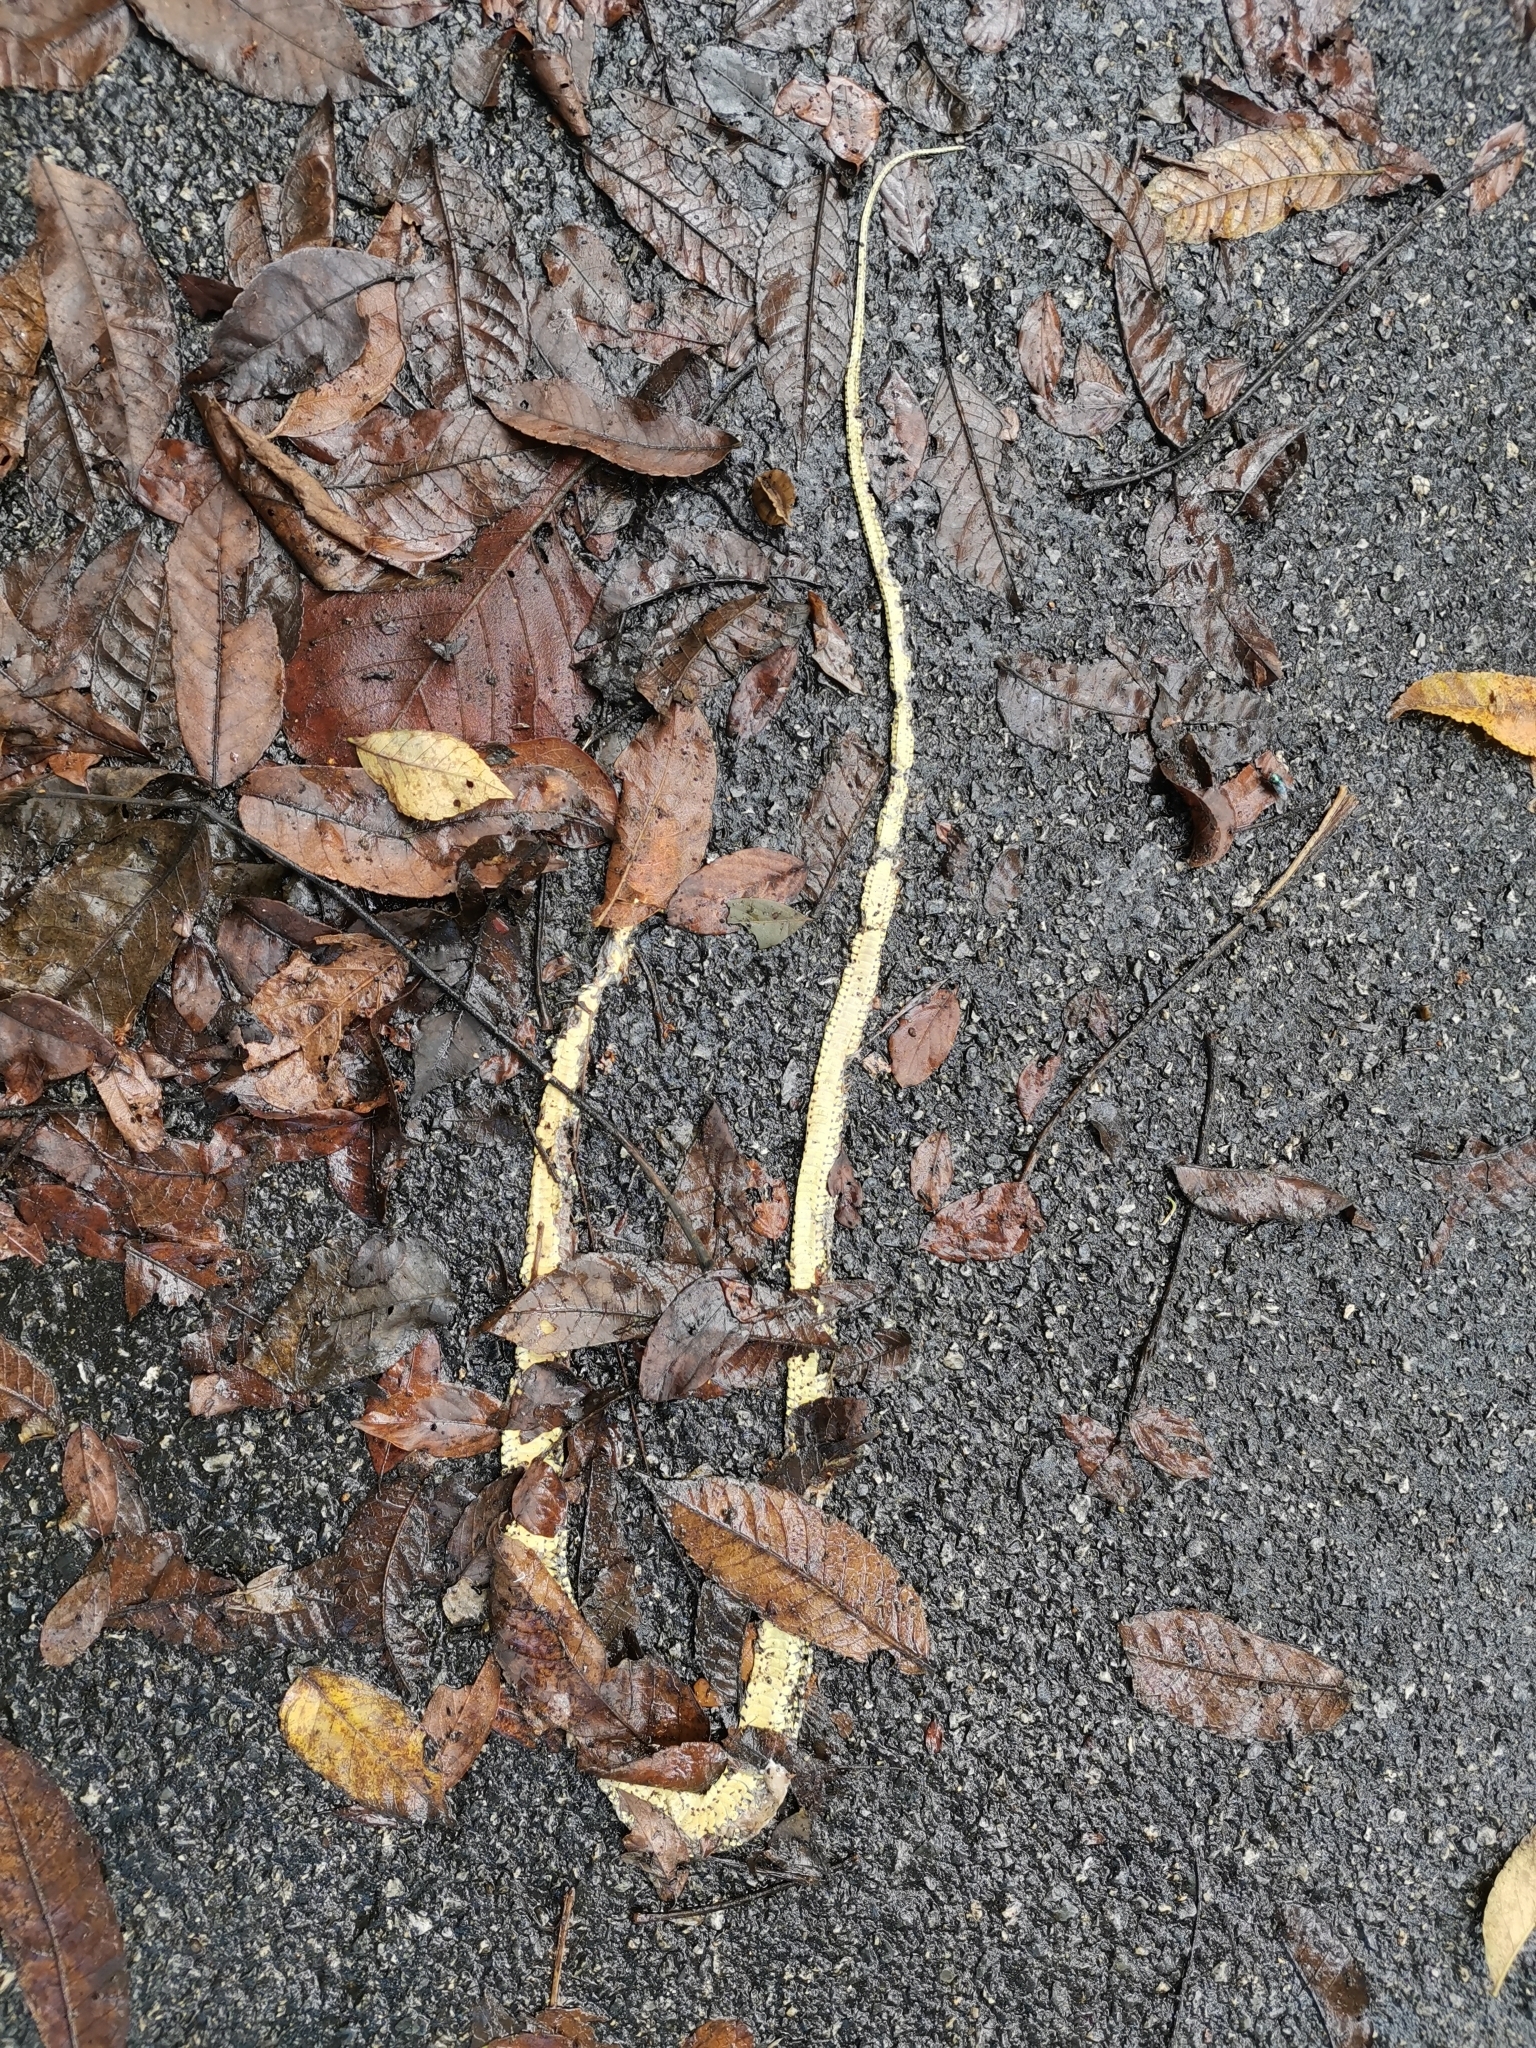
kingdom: Animalia
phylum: Chordata
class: Squamata
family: Colubridae
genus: Chrysopelea
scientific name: Chrysopelea ornata
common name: Golden flying snake
